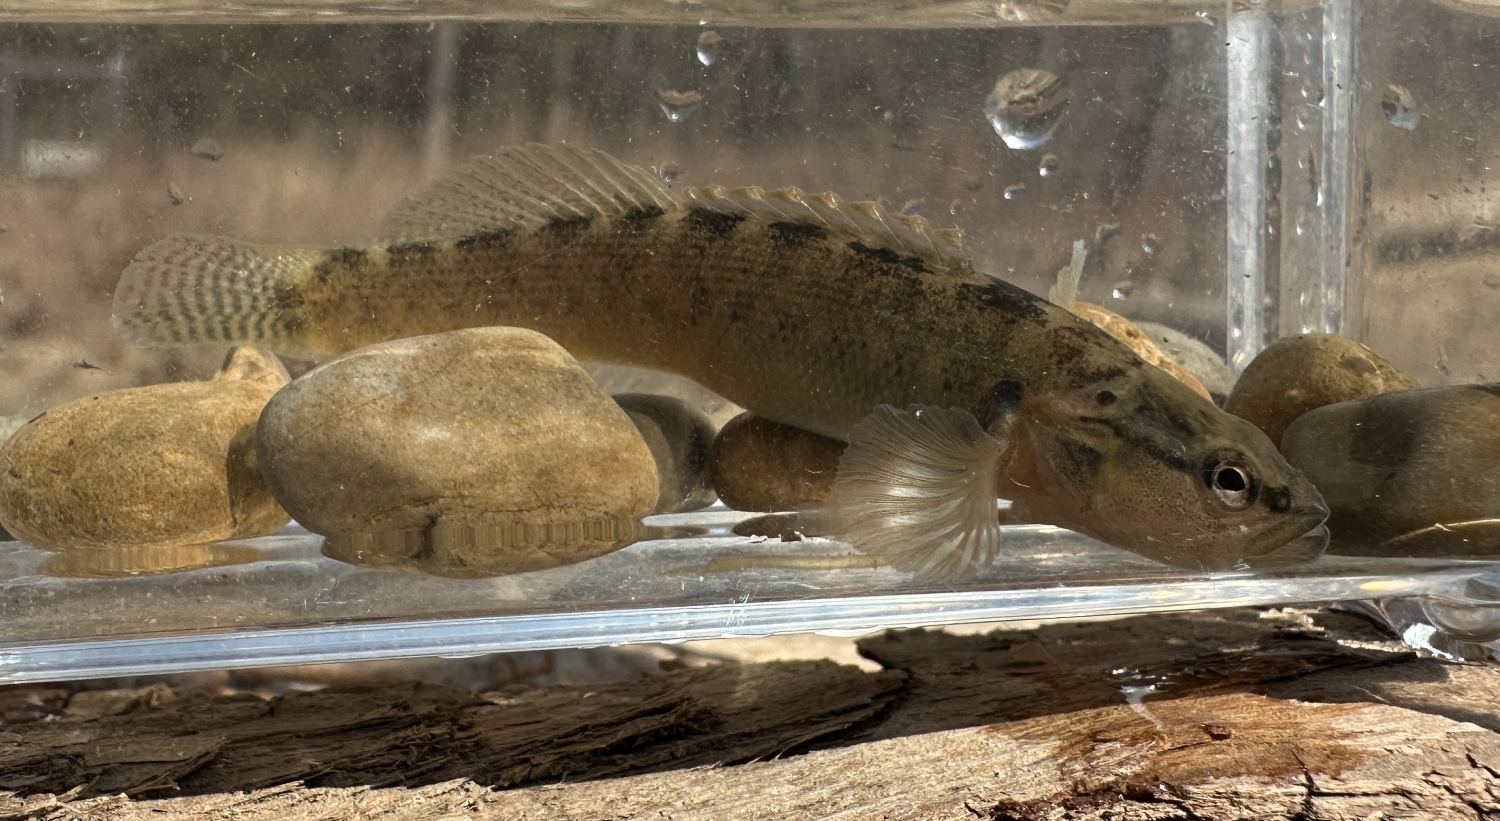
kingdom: Animalia
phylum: Chordata
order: Perciformes
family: Percidae
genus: Etheostoma
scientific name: Etheostoma flabellare
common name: Fantail darter
